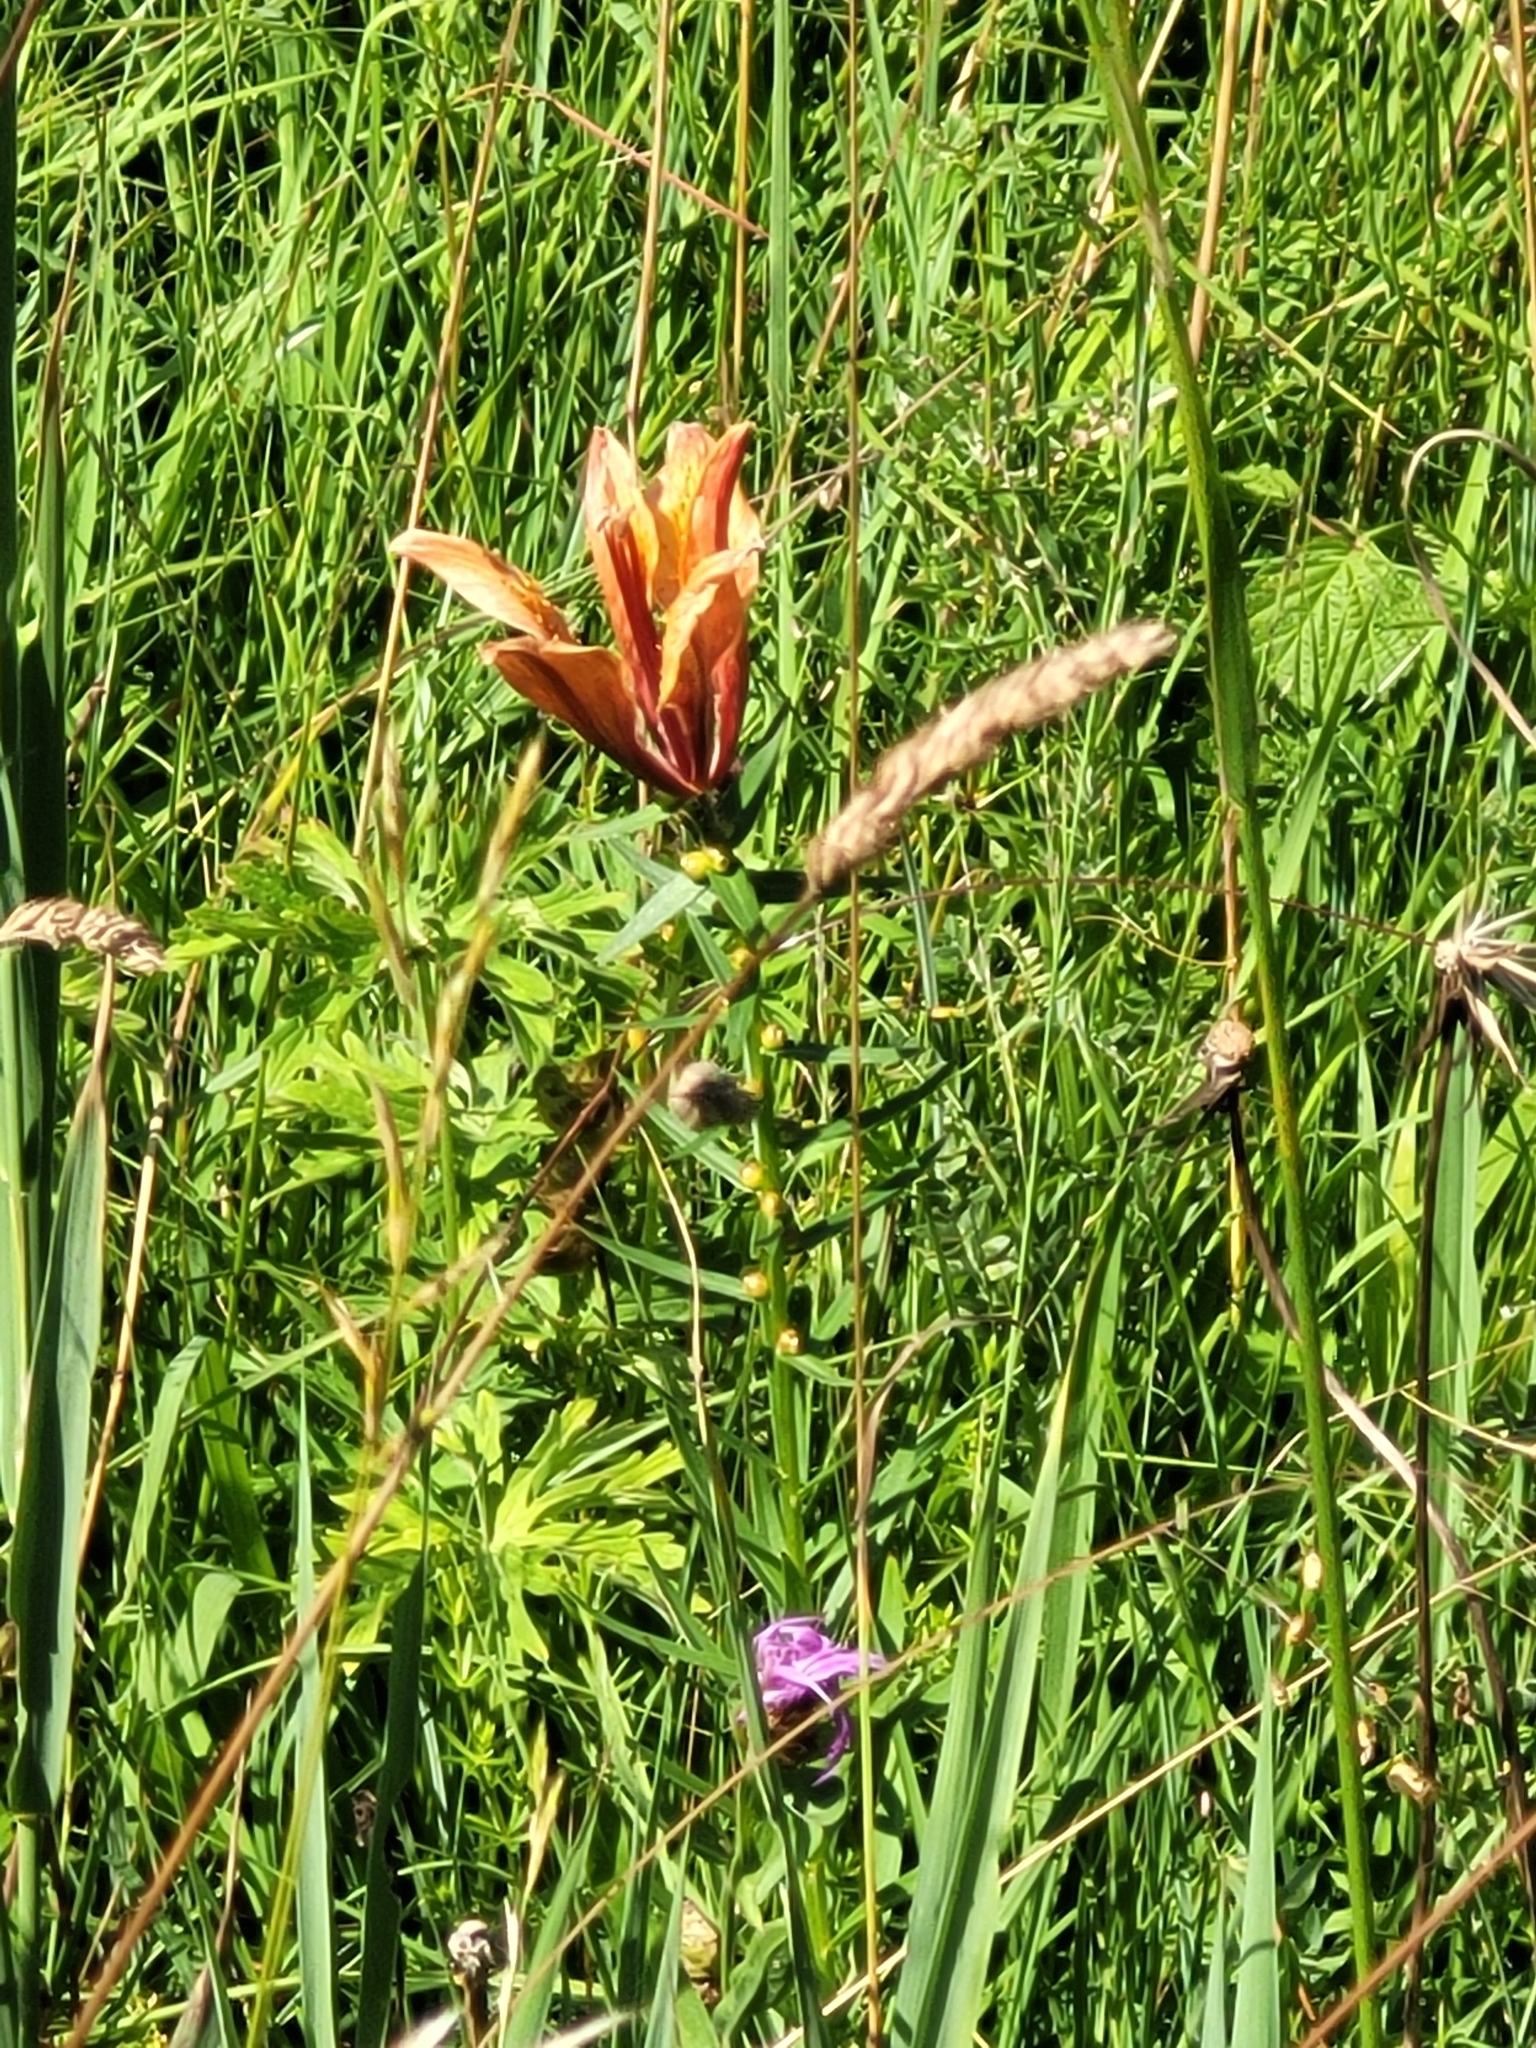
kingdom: Plantae
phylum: Tracheophyta
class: Liliopsida
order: Liliales
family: Liliaceae
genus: Lilium
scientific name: Lilium bulbiferum
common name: Orange lily
